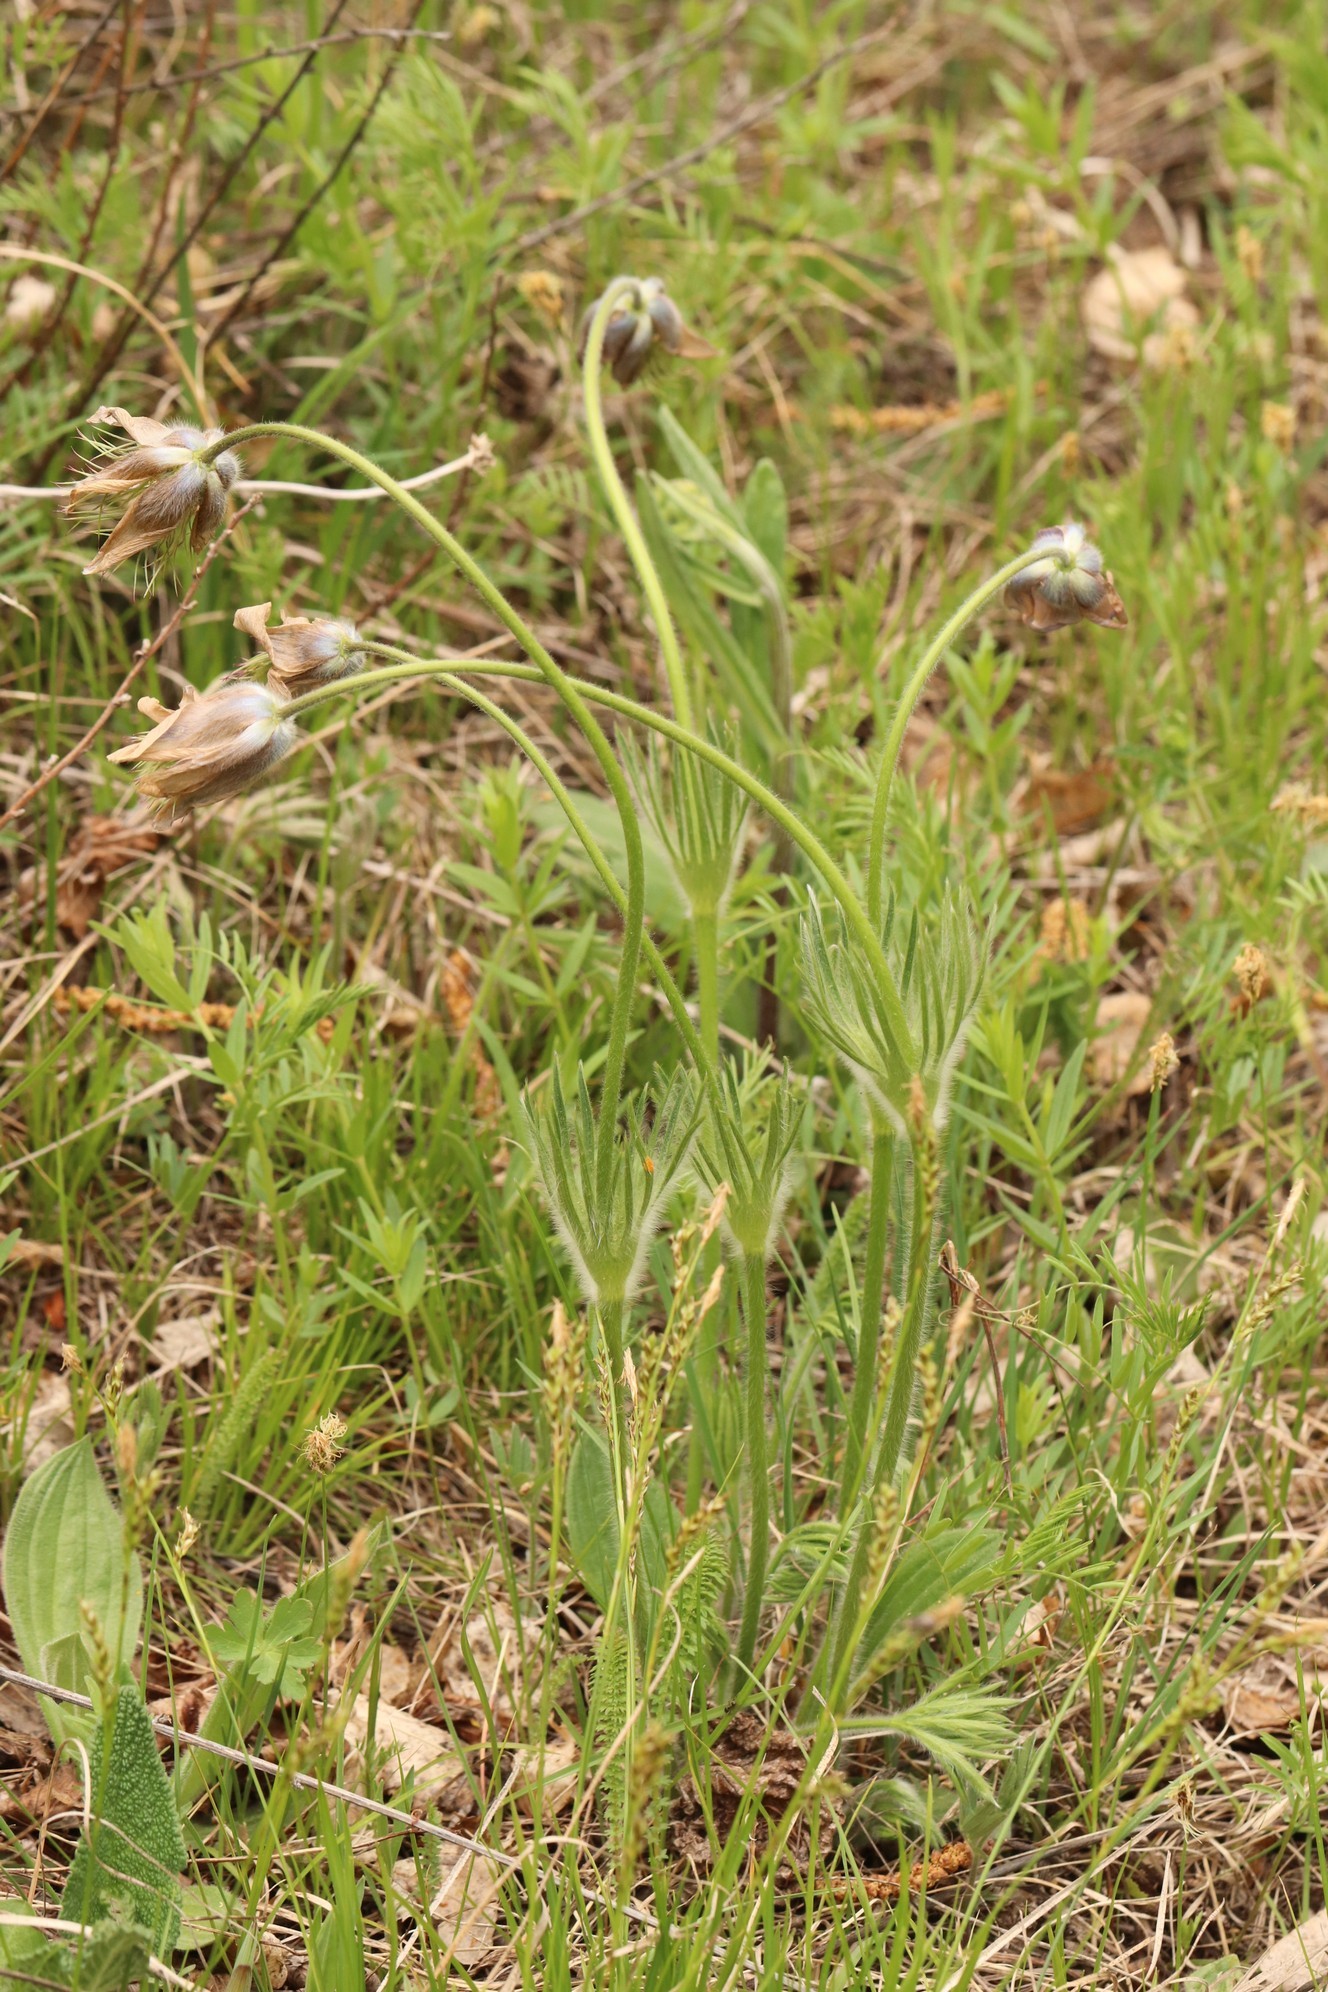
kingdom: Plantae
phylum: Tracheophyta
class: Magnoliopsida
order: Ranunculales
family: Ranunculaceae
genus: Pulsatilla
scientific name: Pulsatilla patens
